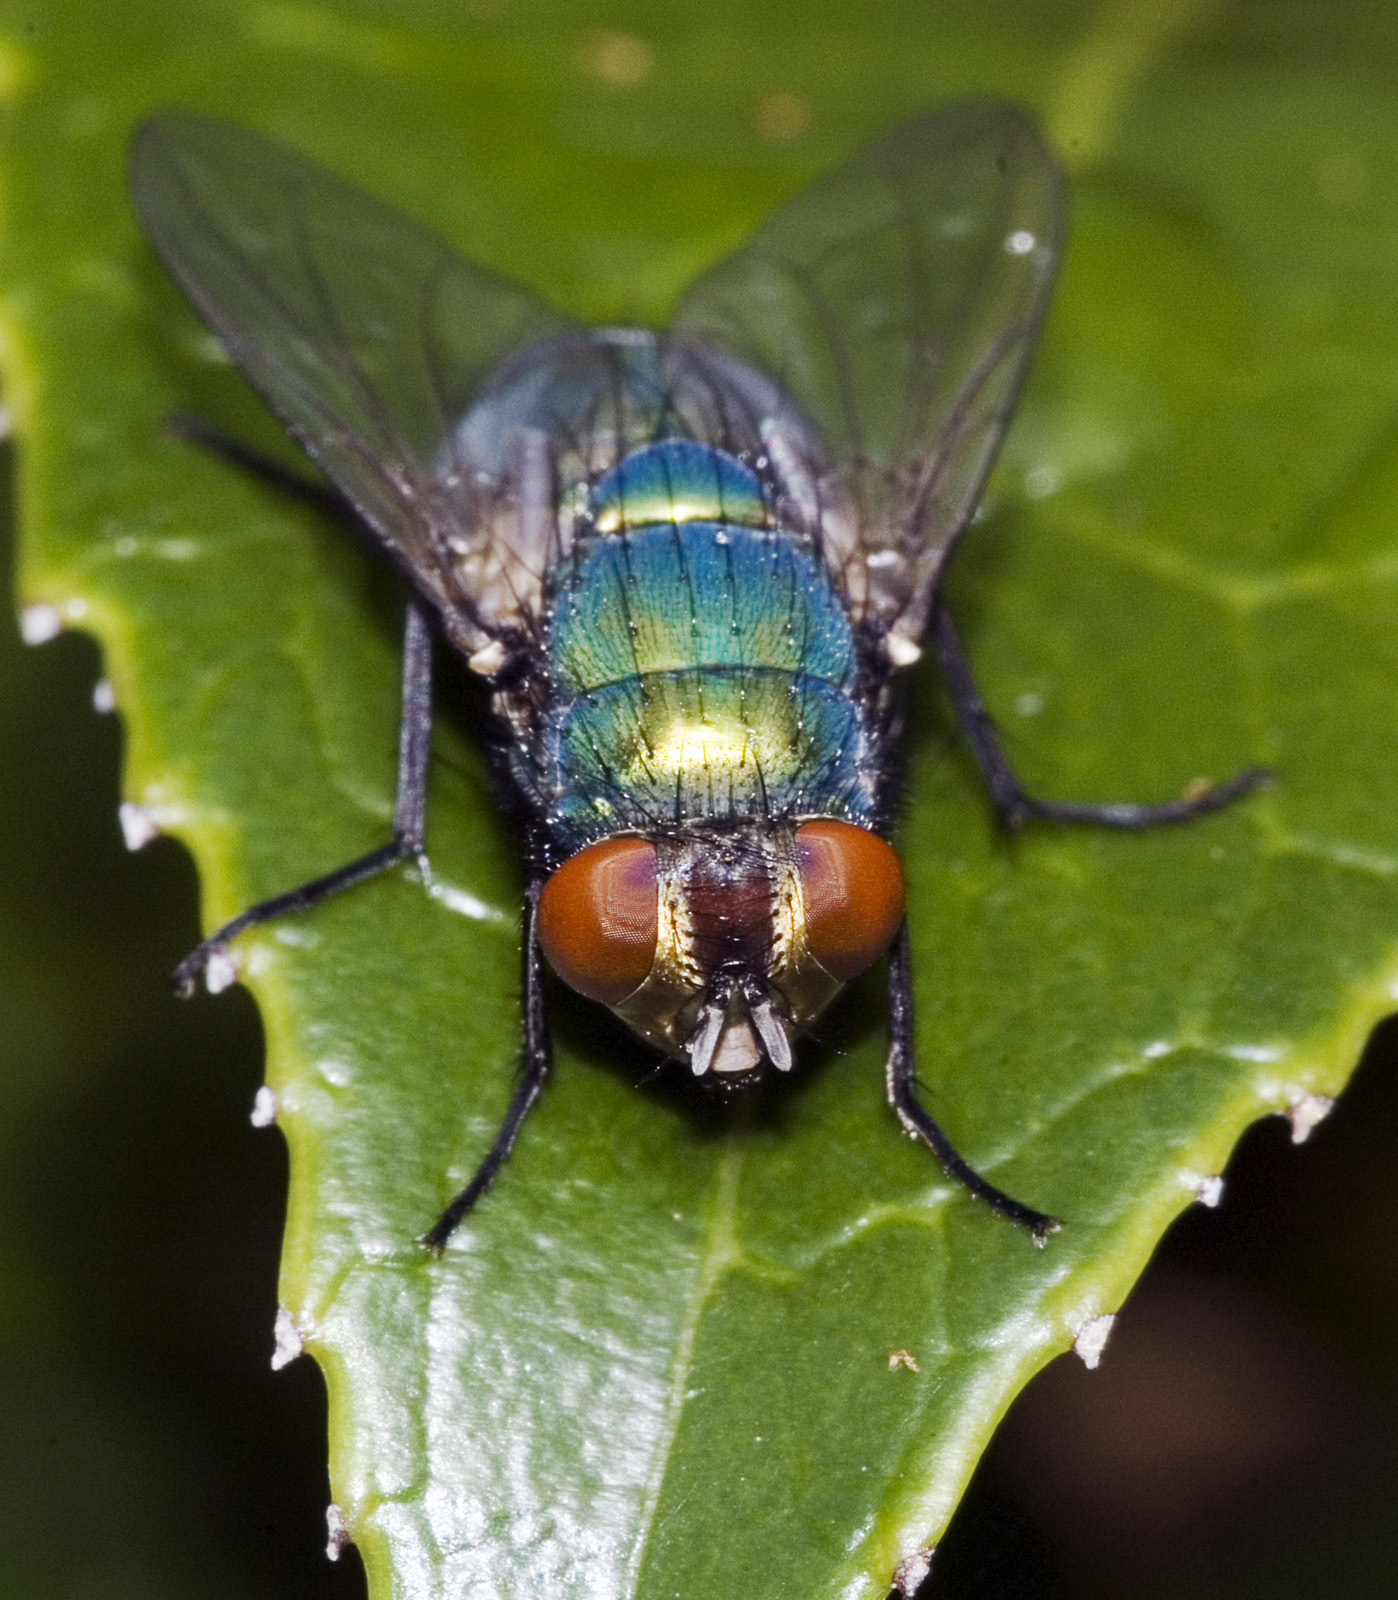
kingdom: Animalia
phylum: Arthropoda
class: Insecta
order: Diptera
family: Calliphoridae
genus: Lucilia
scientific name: Lucilia sericata
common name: Blow fly
